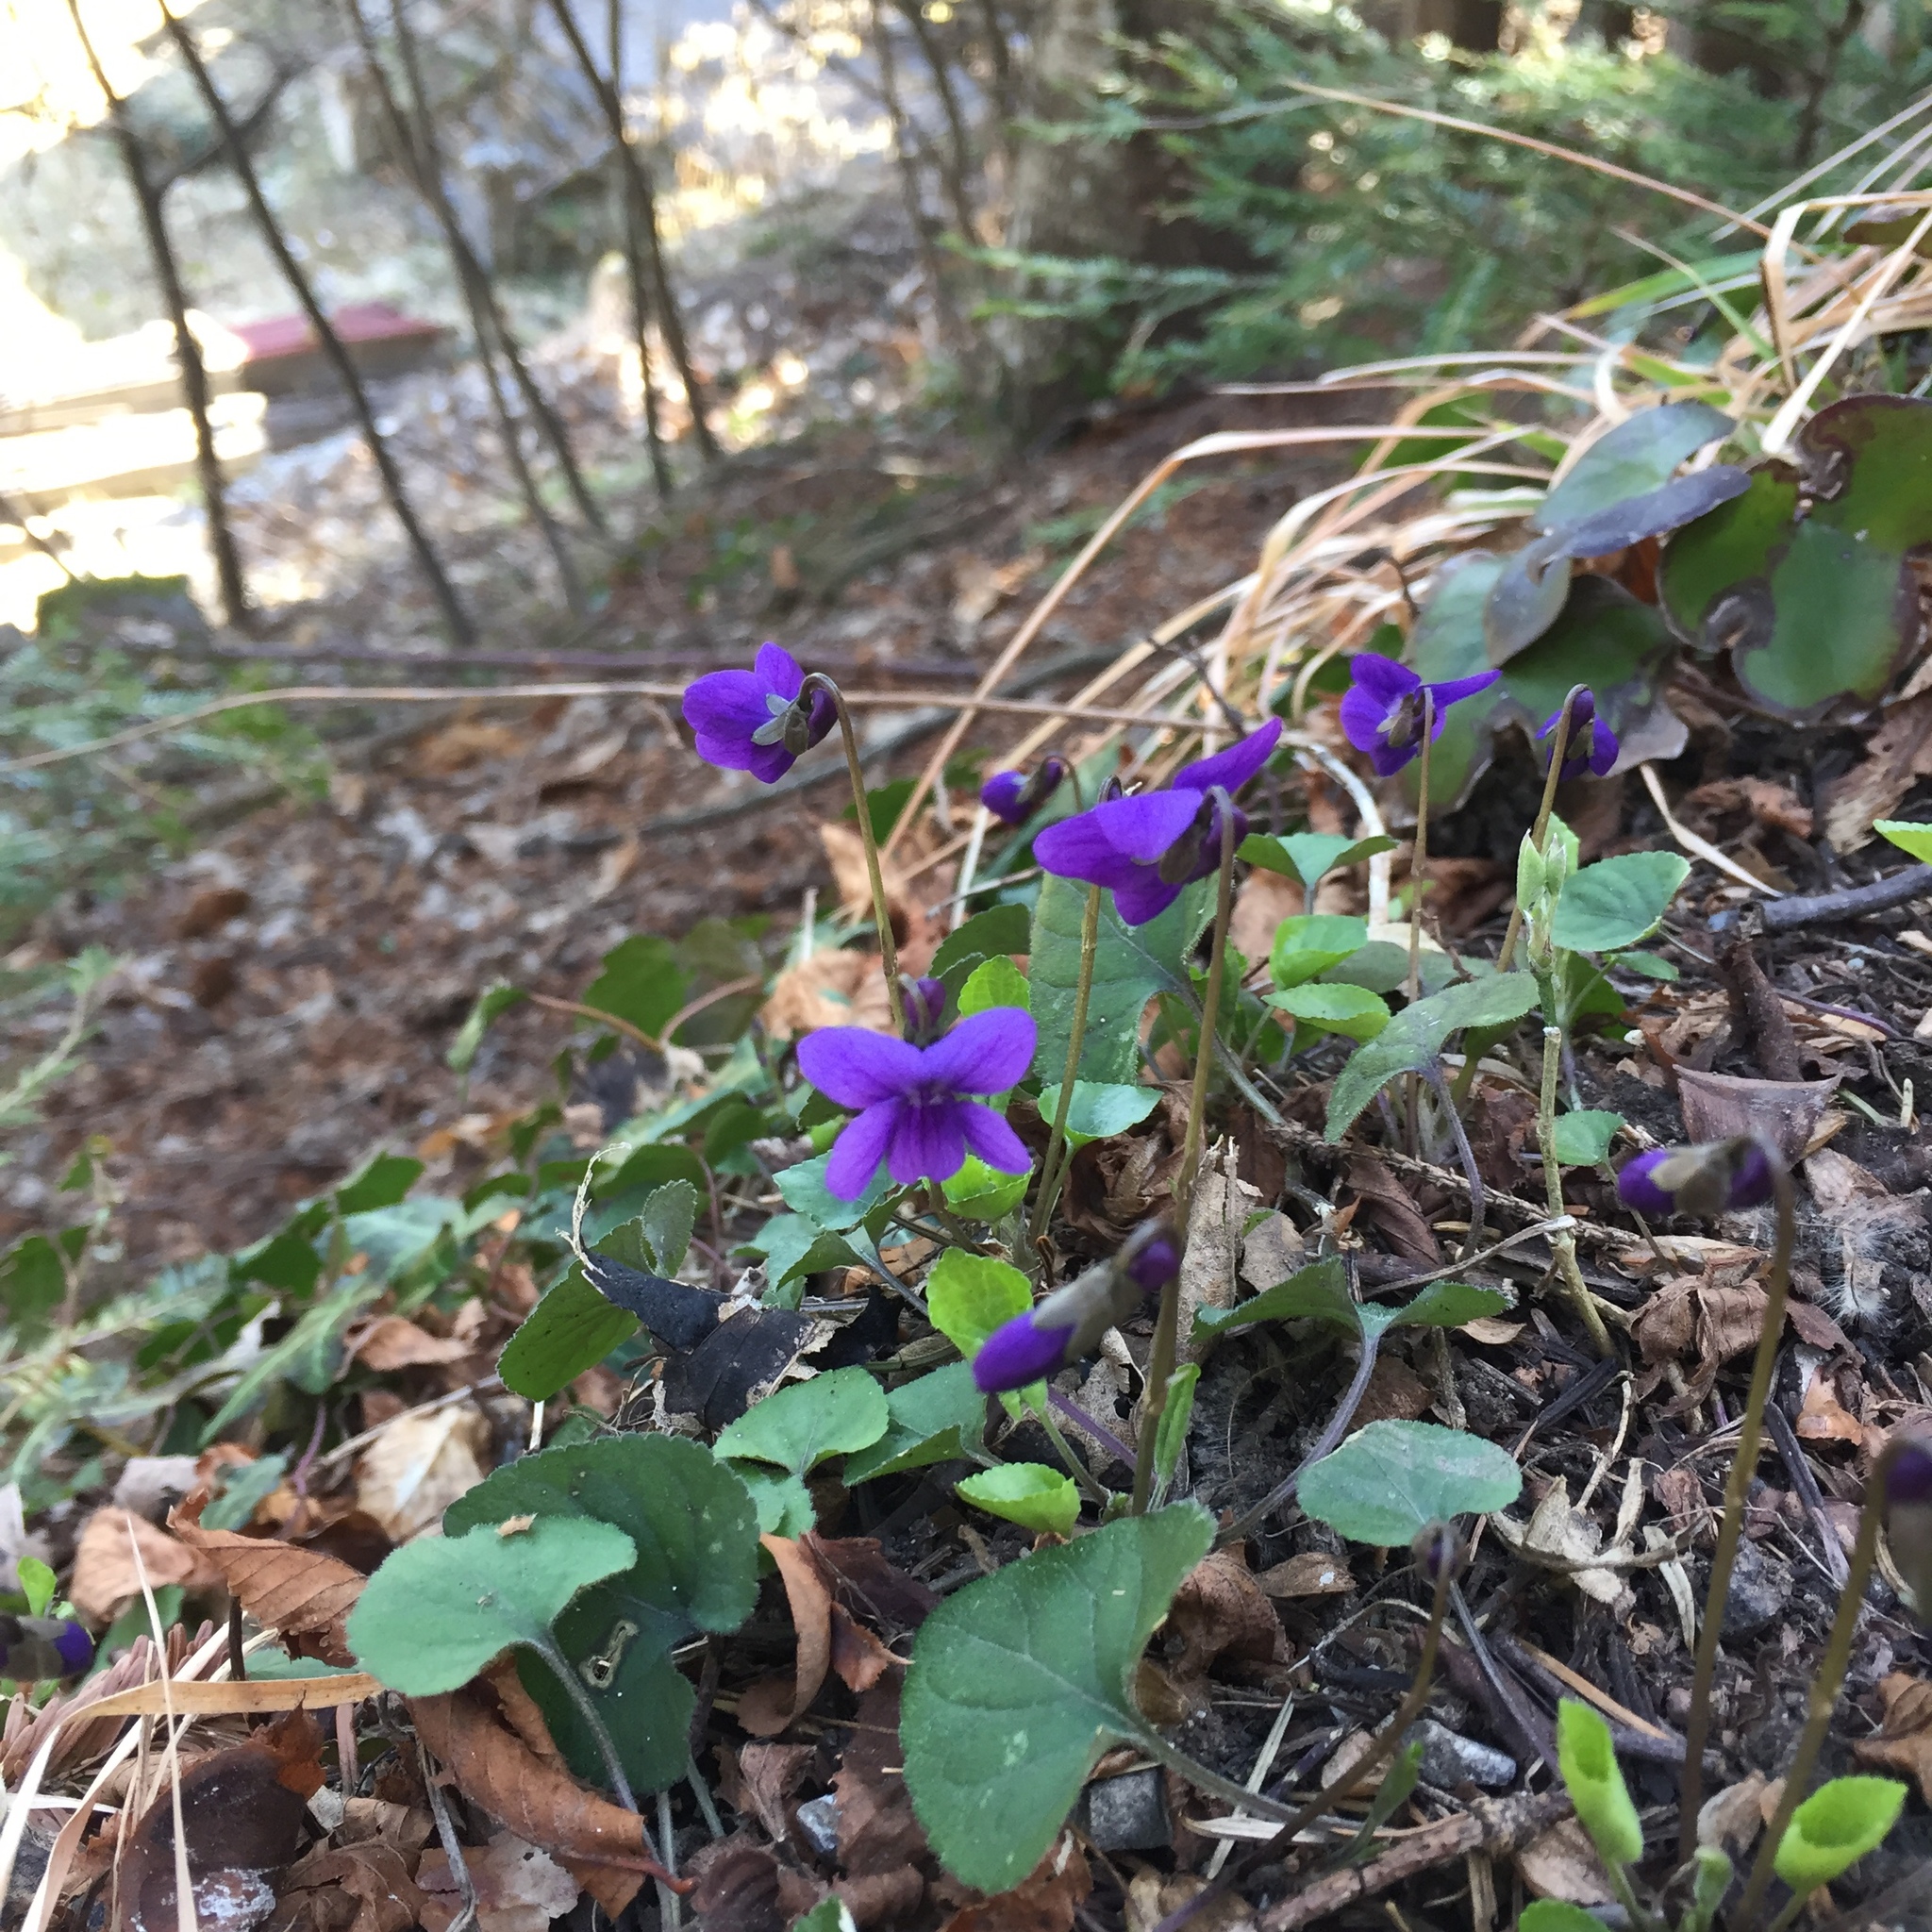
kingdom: Plantae
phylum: Tracheophyta
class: Magnoliopsida
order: Malpighiales
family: Violaceae
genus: Viola
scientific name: Viola odorata
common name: Sweet violet
